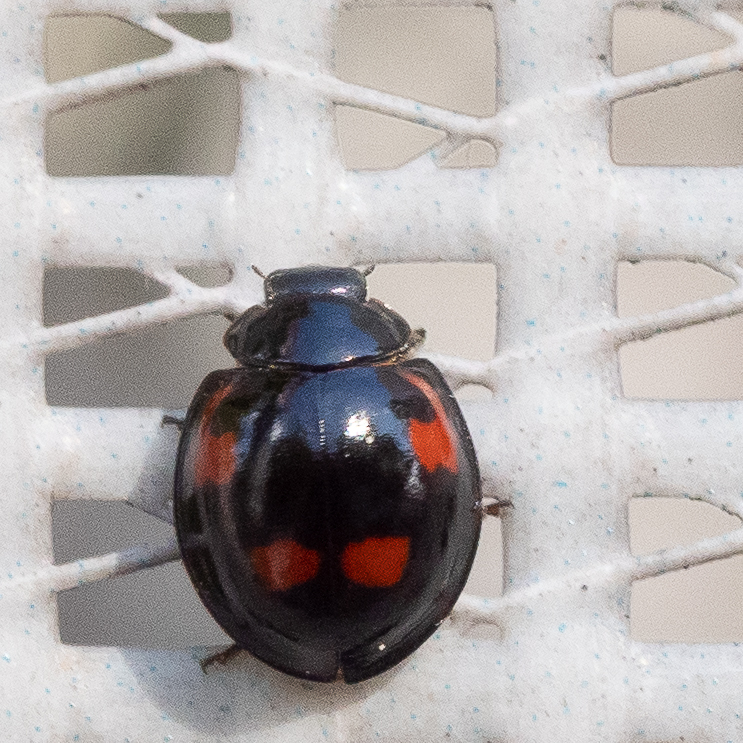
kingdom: Animalia
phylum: Arthropoda
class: Insecta
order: Coleoptera
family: Coccinellidae
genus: Brumus
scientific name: Brumus quadripustulatus
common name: Ladybird beetle
